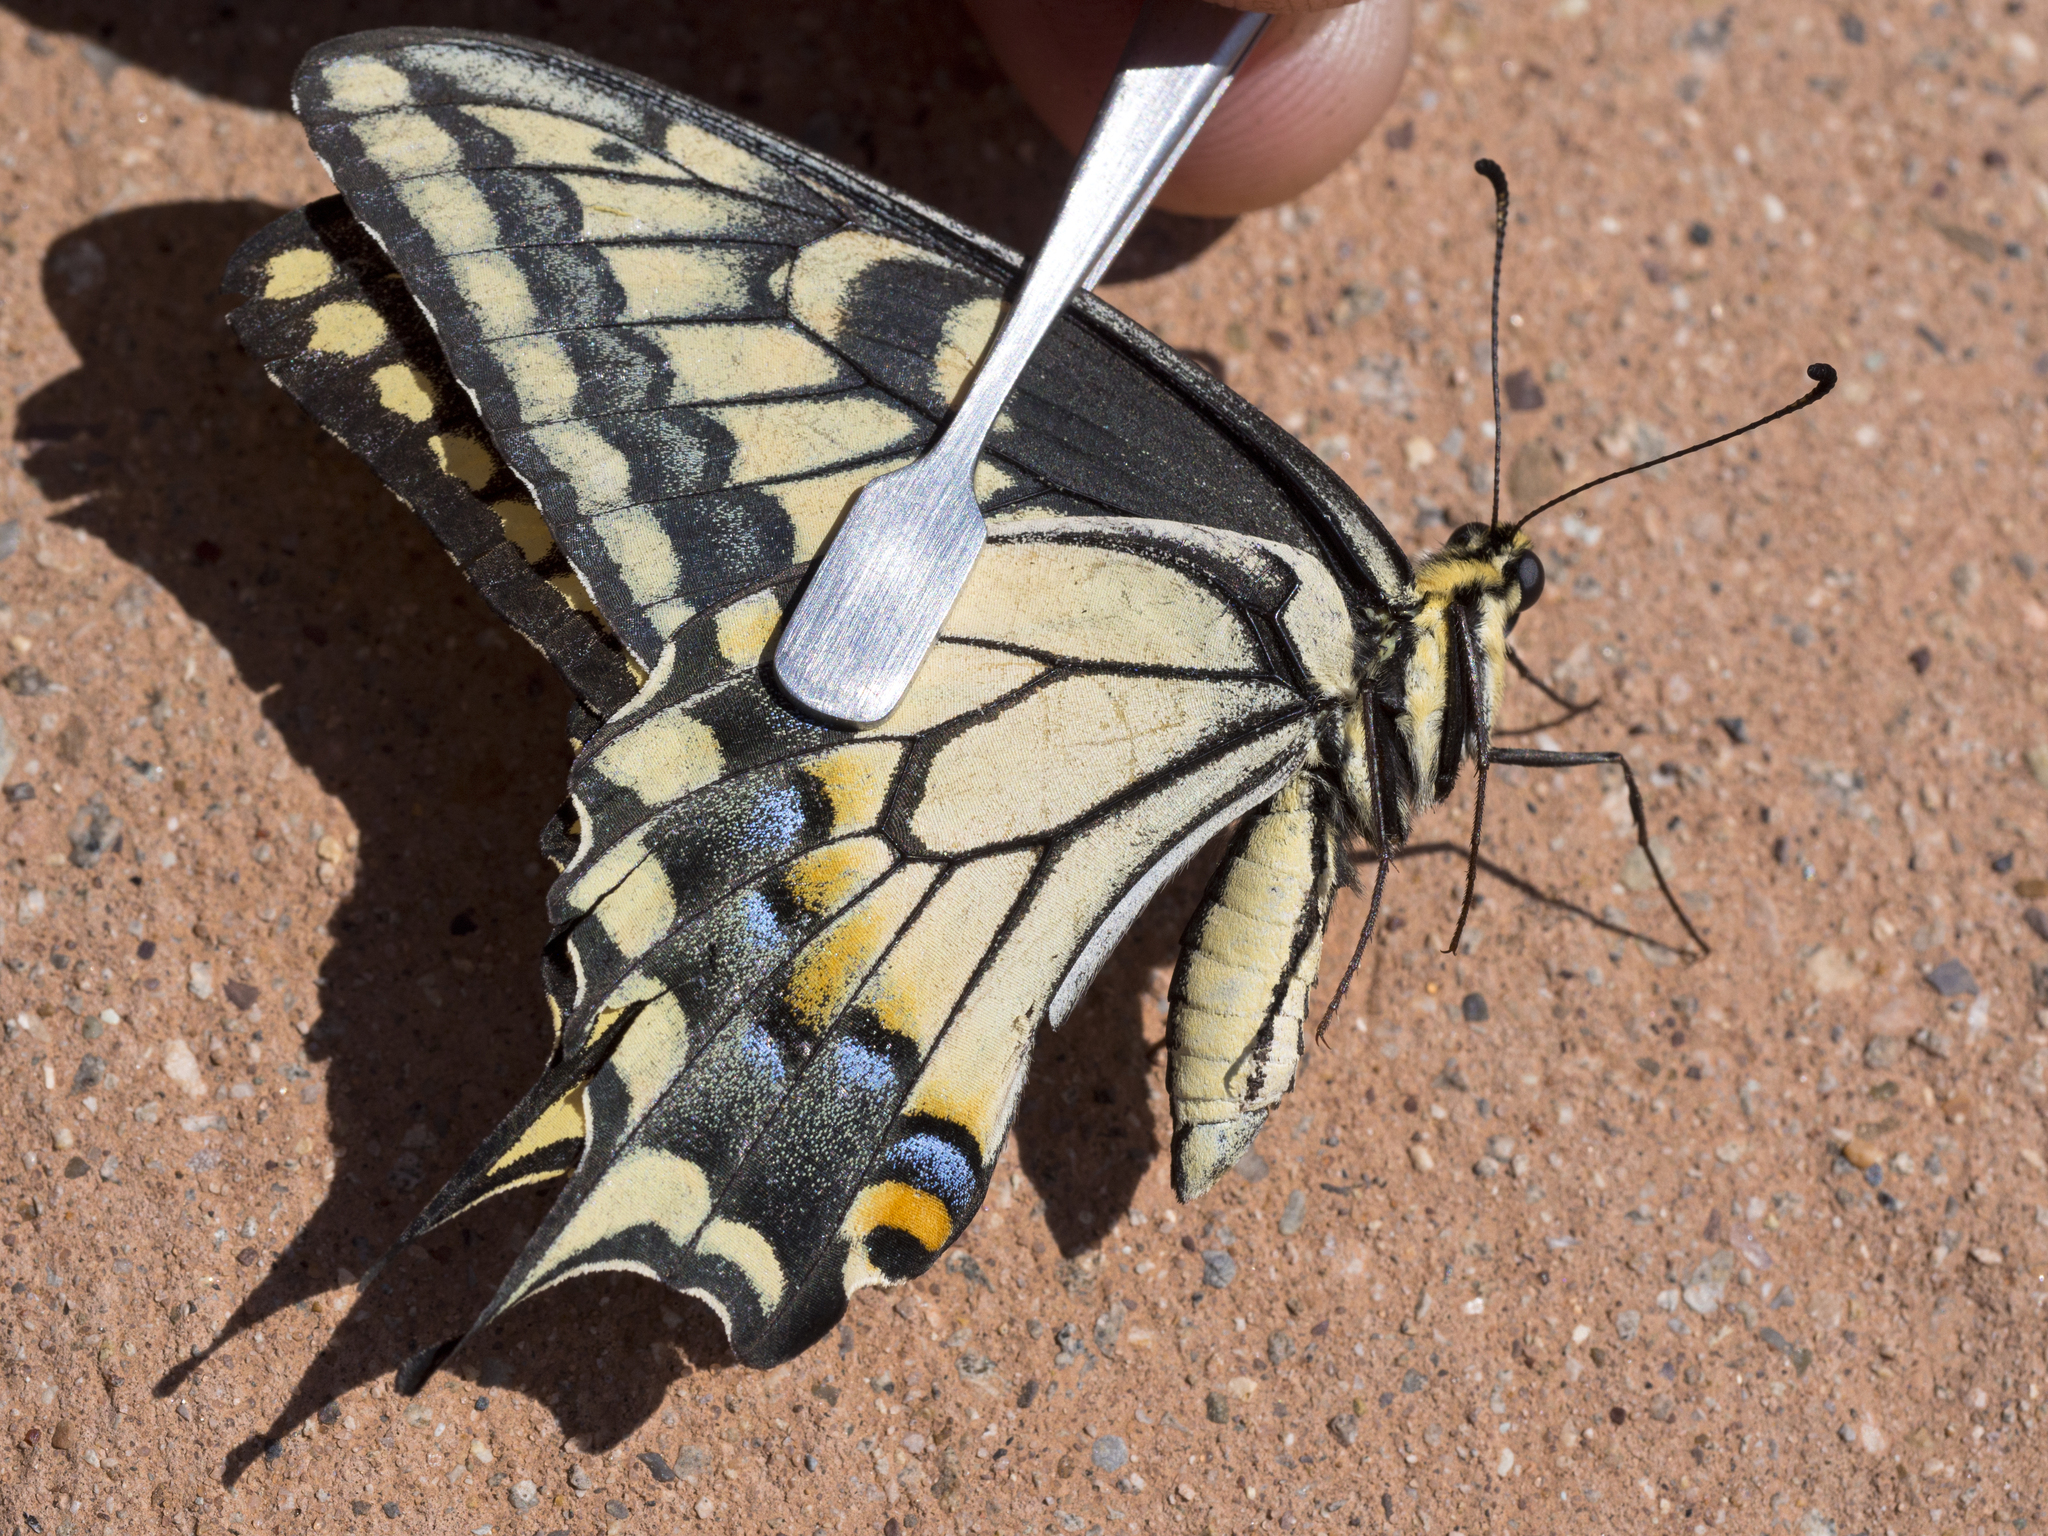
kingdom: Animalia
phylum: Arthropoda
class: Insecta
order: Lepidoptera
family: Papilionidae
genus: Papilio
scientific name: Papilio
